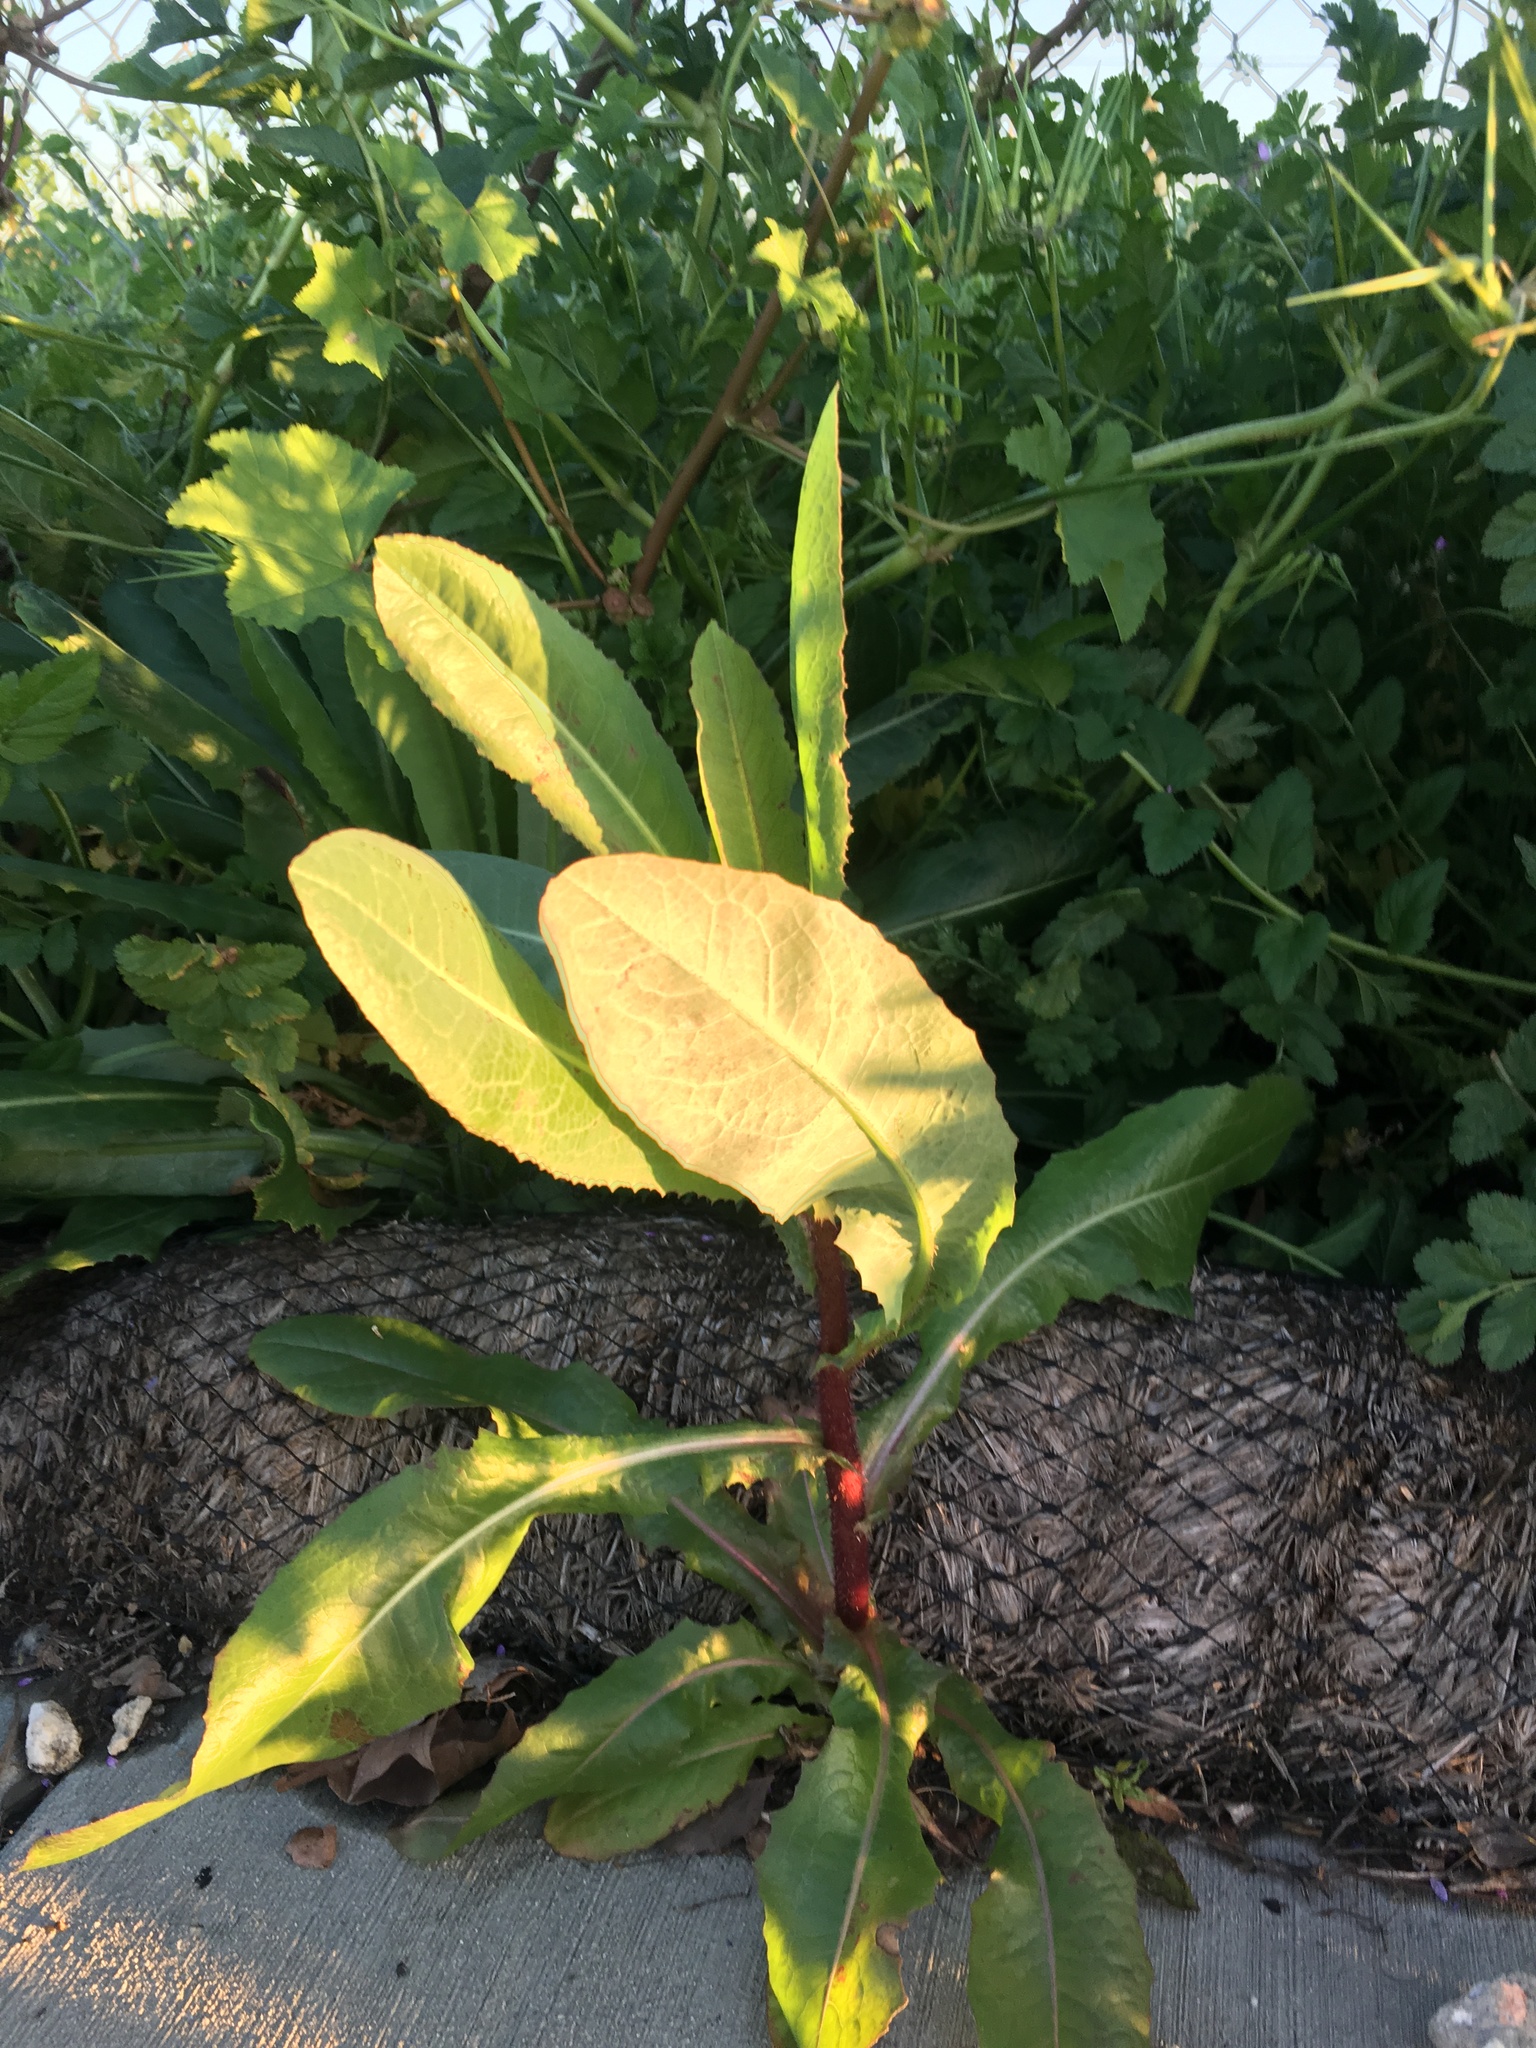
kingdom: Plantae
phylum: Tracheophyta
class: Magnoliopsida
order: Asterales
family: Asteraceae
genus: Lactuca
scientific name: Lactuca serriola
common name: Prickly lettuce
